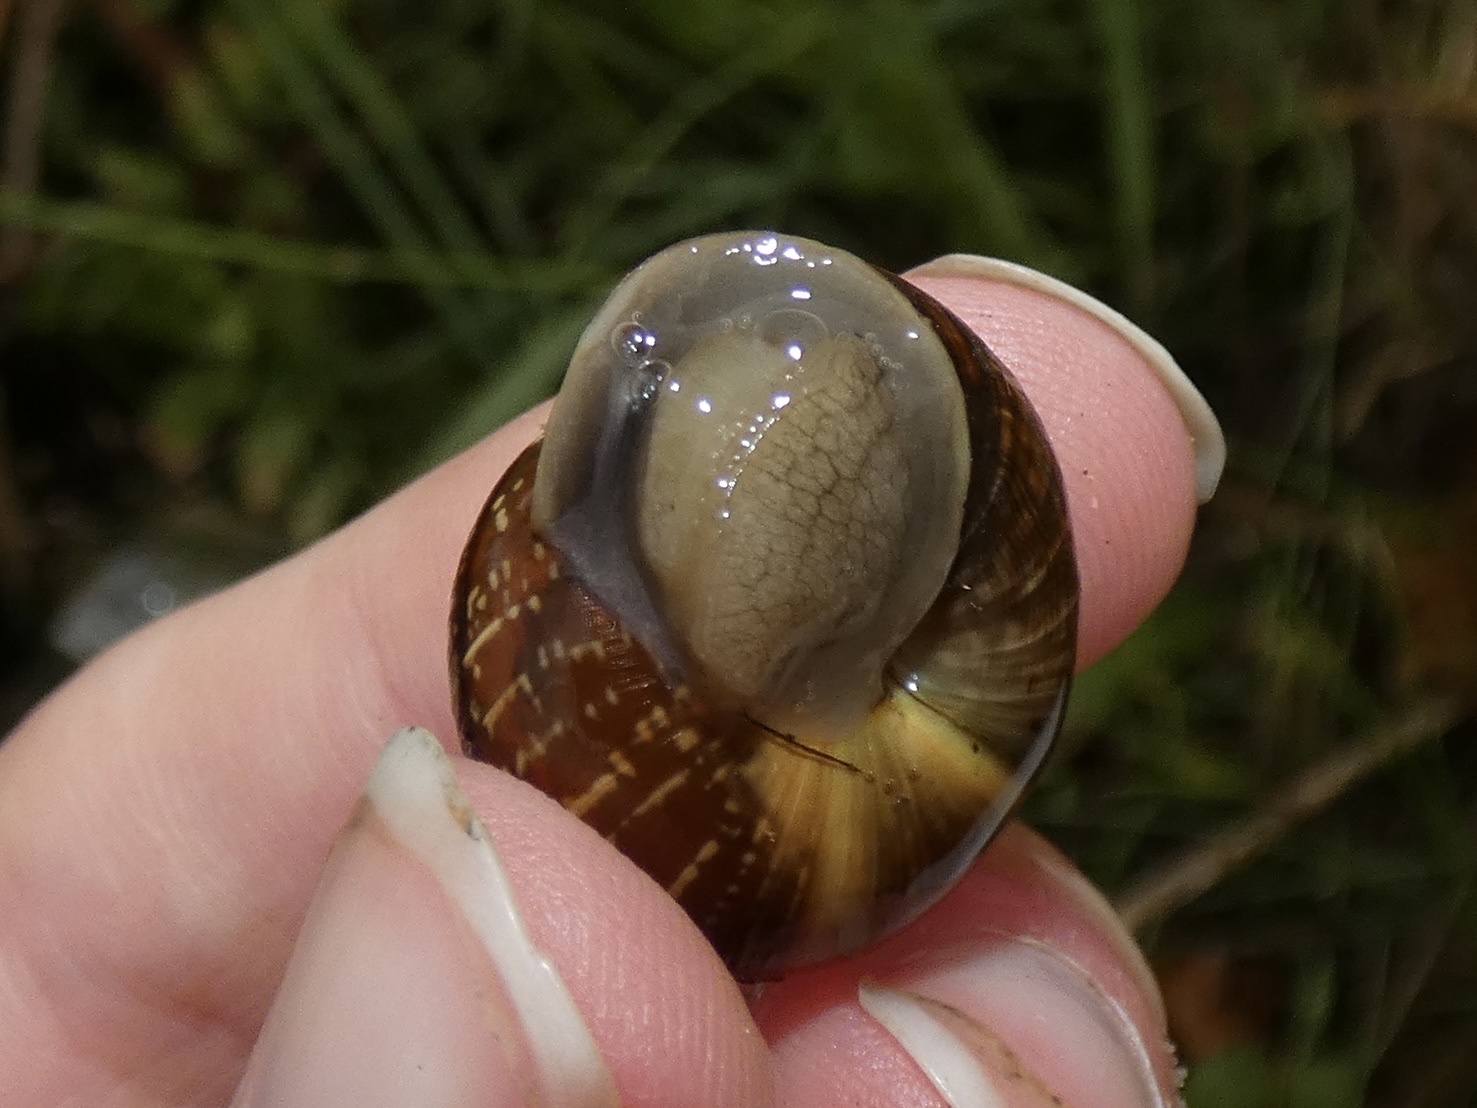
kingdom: Animalia
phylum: Mollusca
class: Gastropoda
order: Stylommatophora
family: Helicidae
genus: Arianta
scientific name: Arianta arbustorum
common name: Copse snail
